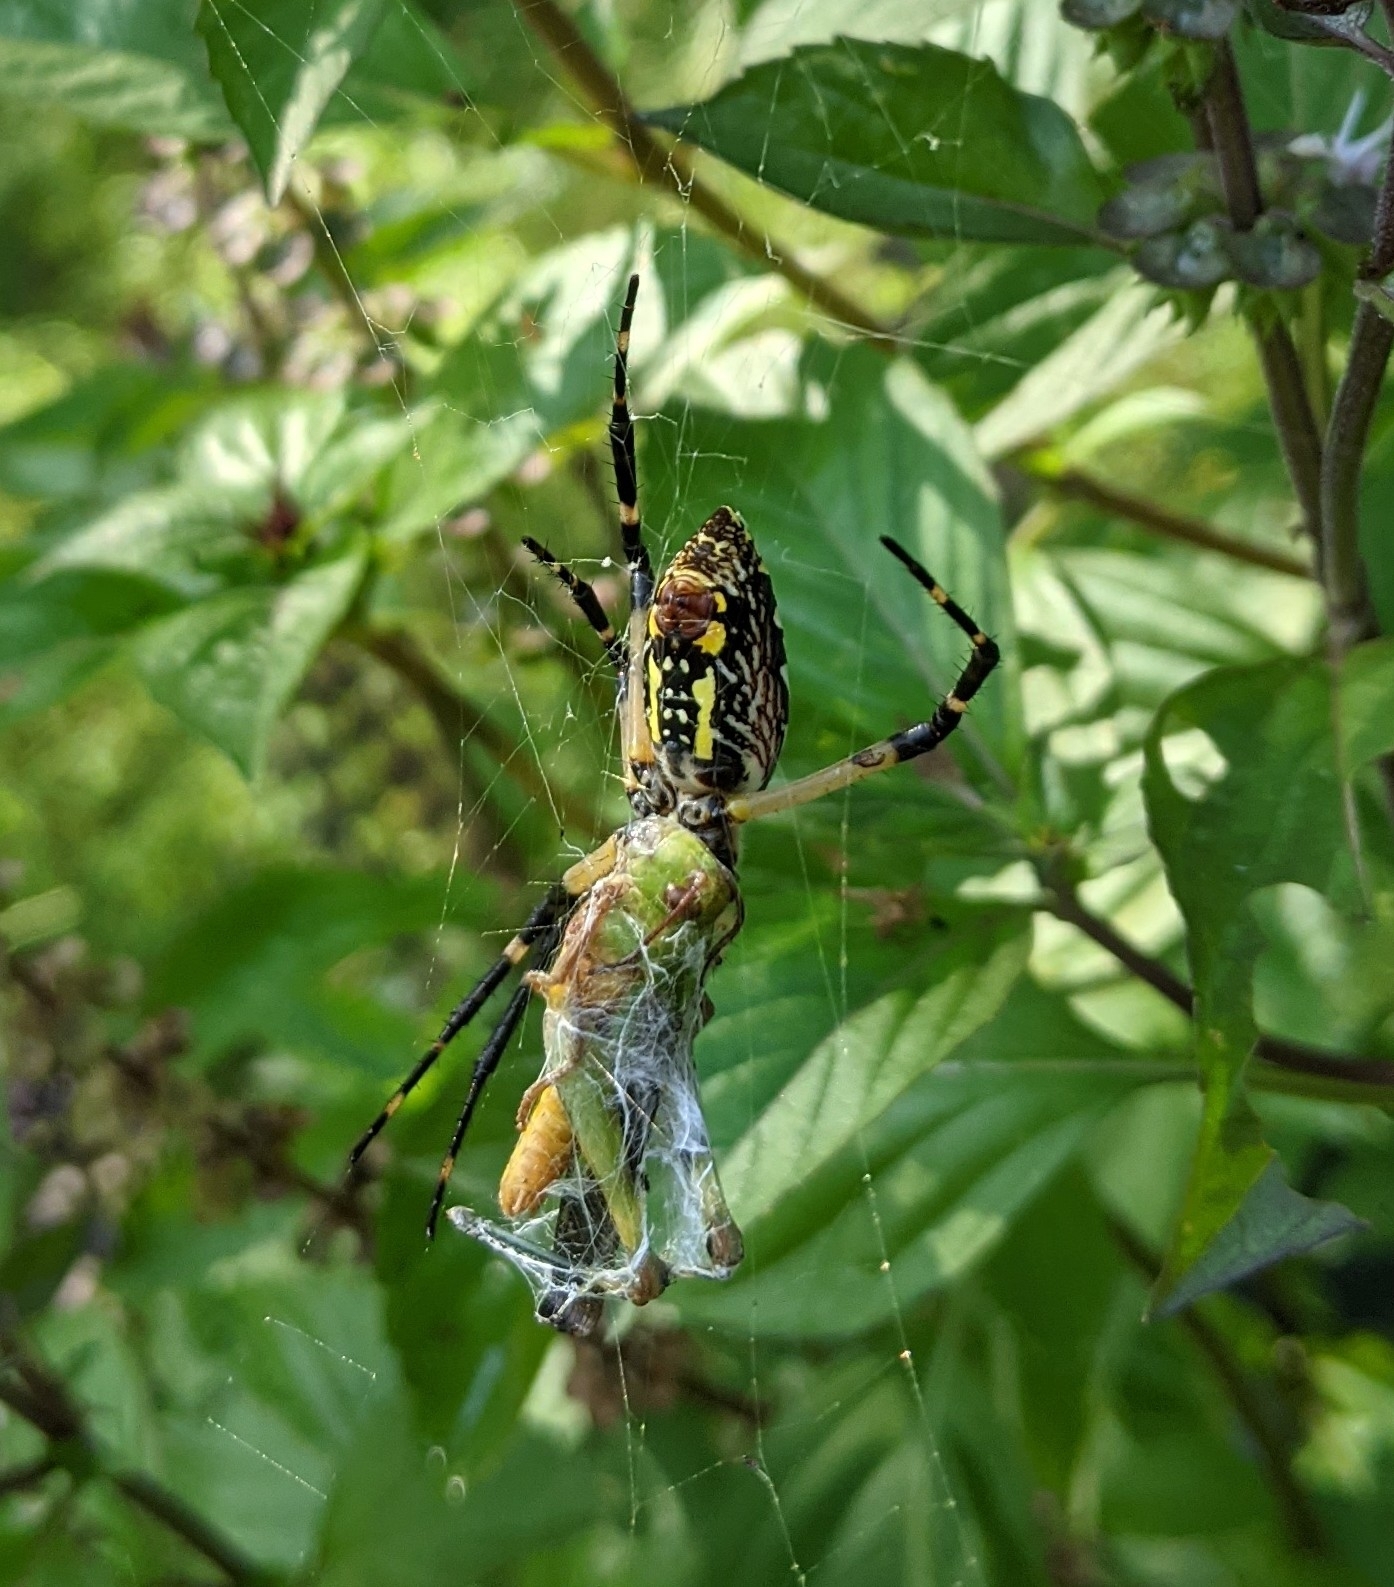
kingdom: Animalia
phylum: Arthropoda
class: Arachnida
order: Araneae
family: Araneidae
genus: Argiope
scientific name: Argiope aurantia
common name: Orb weavers
